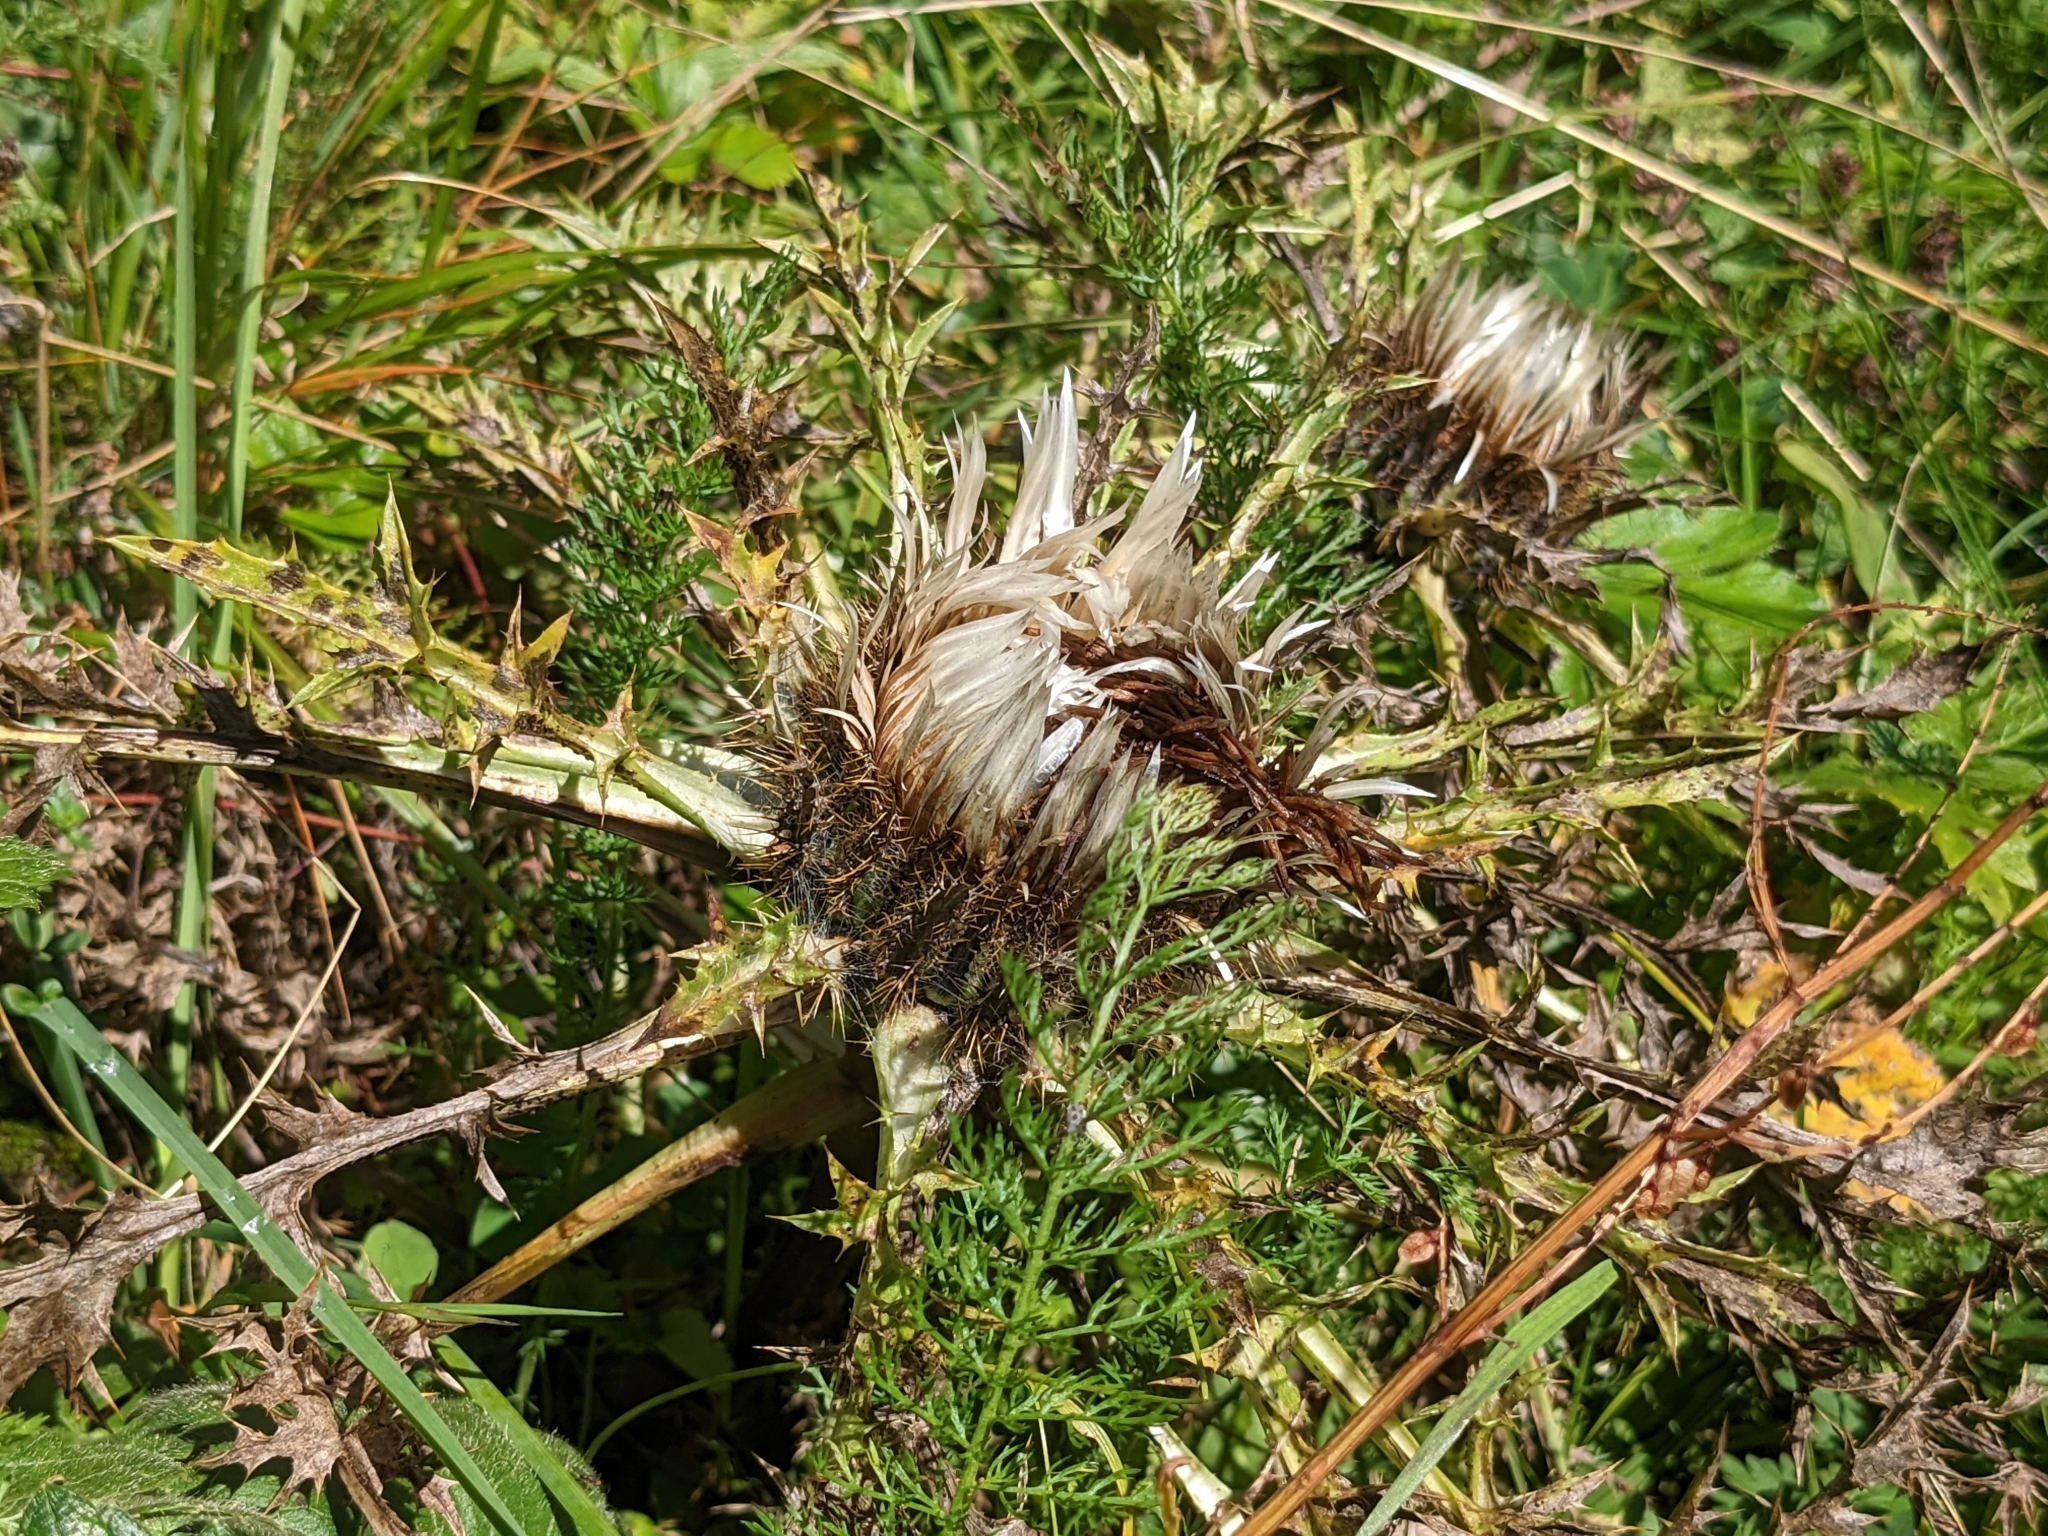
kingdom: Plantae
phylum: Tracheophyta
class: Magnoliopsida
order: Asterales
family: Asteraceae
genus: Carlina
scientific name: Carlina acaulis
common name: Stemless carline thistle
